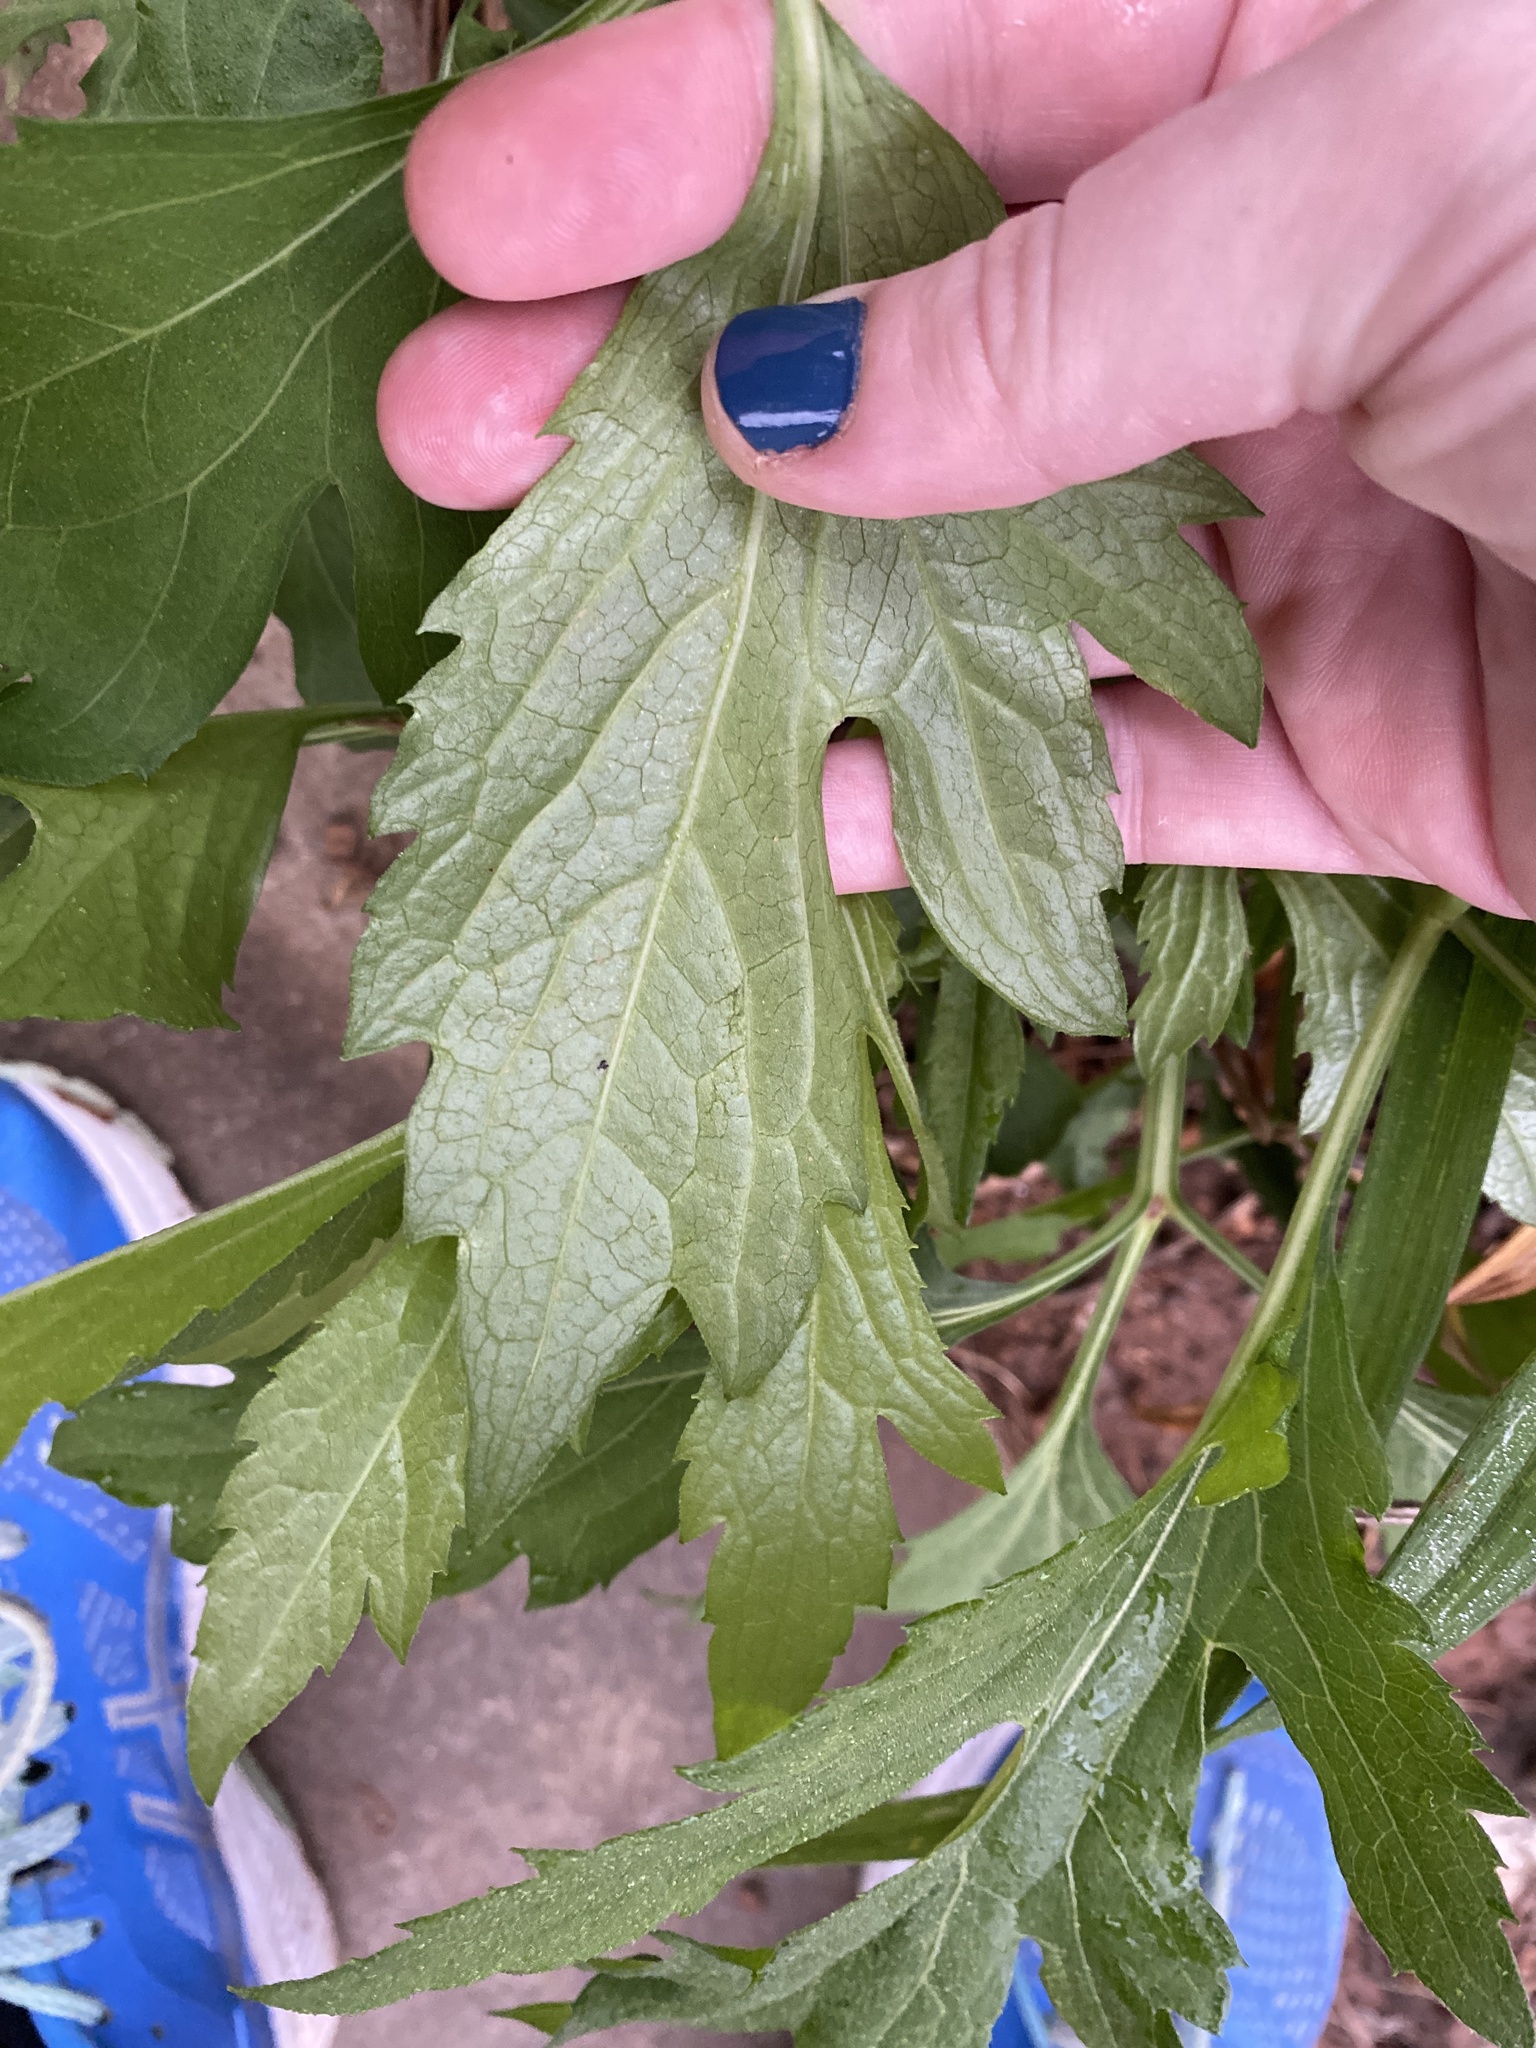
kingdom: Plantae
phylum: Tracheophyta
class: Magnoliopsida
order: Asterales
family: Asteraceae
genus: Rudbeckia
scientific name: Rudbeckia laciniata
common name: Coneflower
